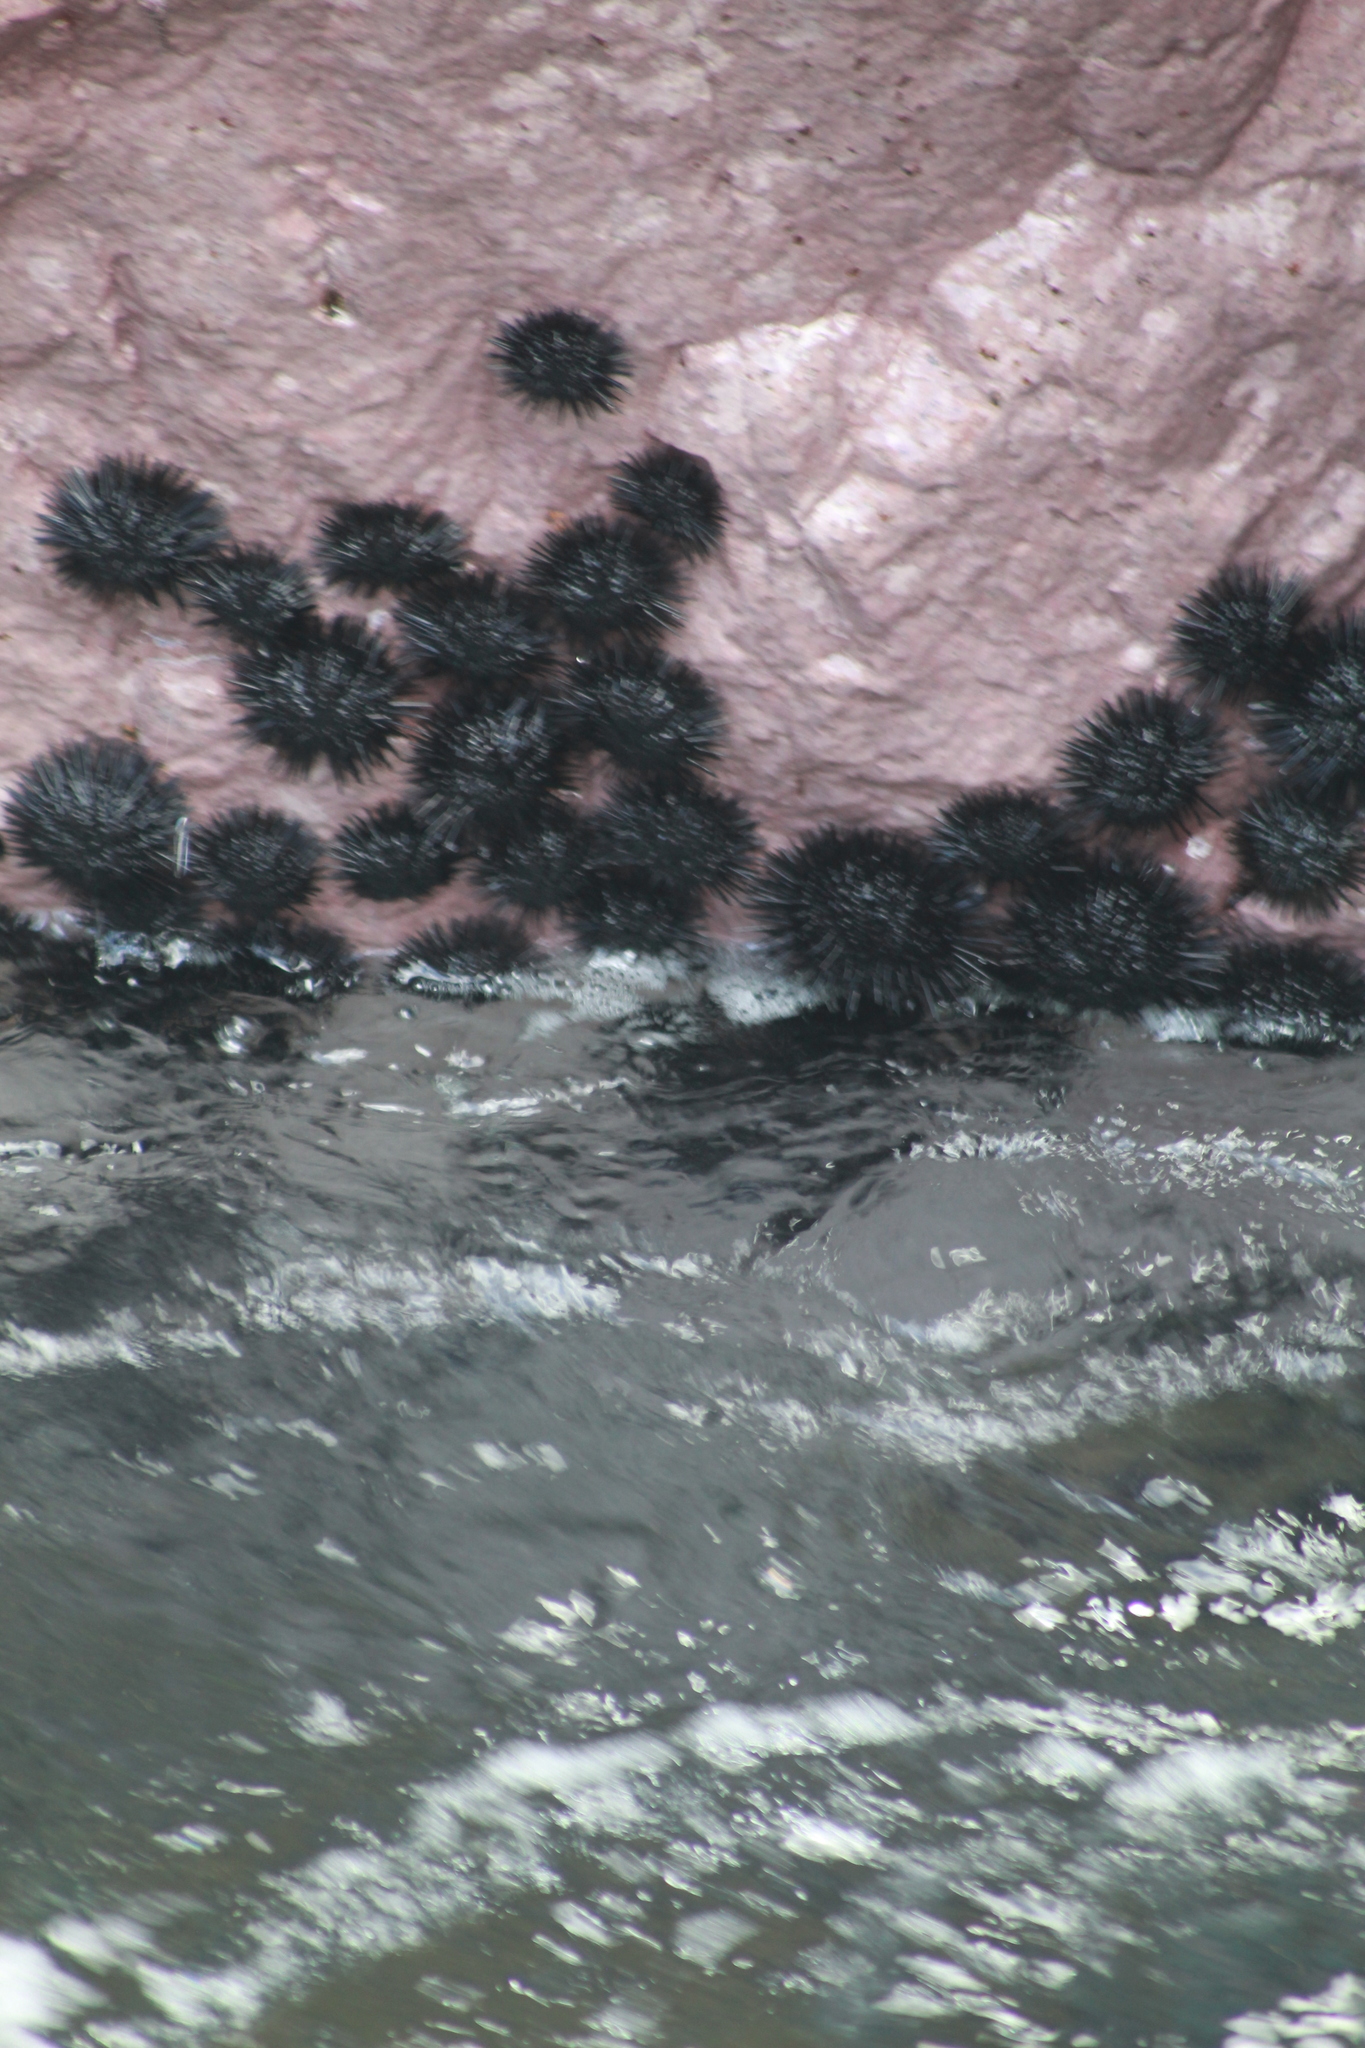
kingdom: Animalia
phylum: Echinodermata
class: Echinoidea
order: Arbacioida
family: Arbaciidae
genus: Tetrapygus
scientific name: Tetrapygus niger
